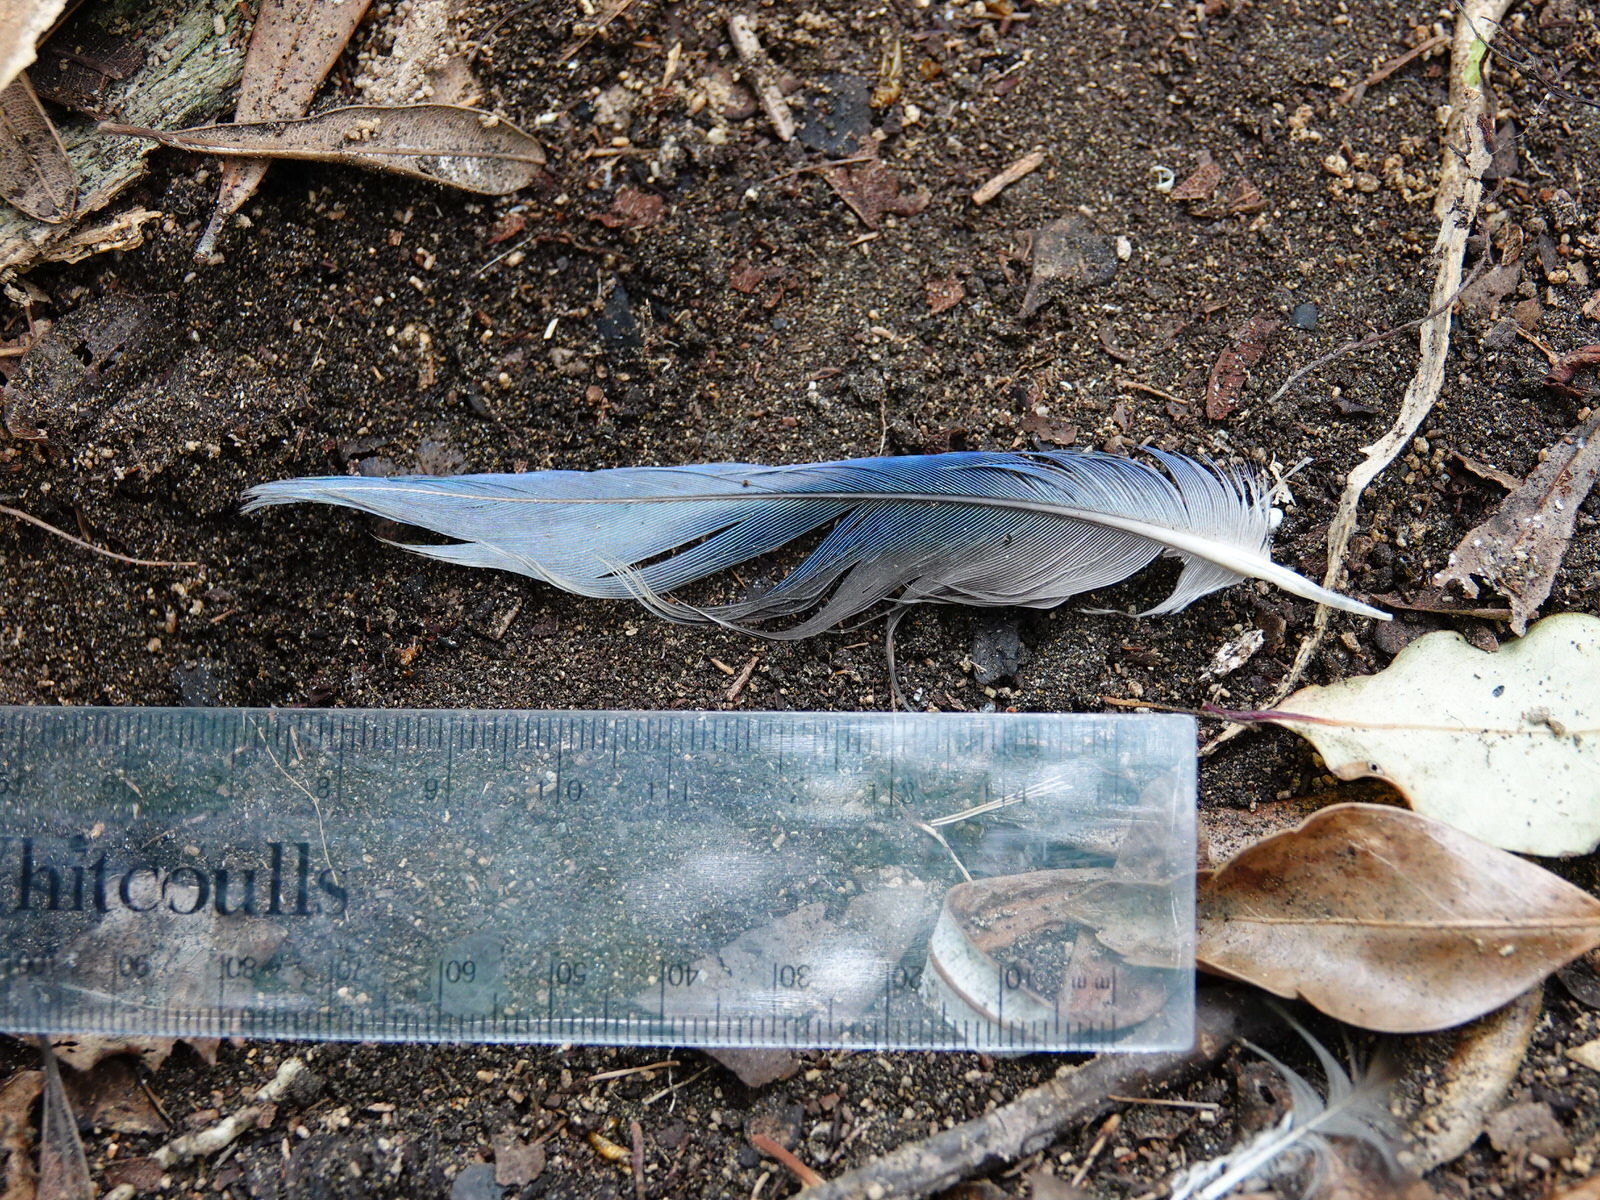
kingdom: Animalia
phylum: Chordata
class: Aves
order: Psittaciformes
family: Psittacidae
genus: Platycercus
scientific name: Platycercus eximius
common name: Eastern rosella
